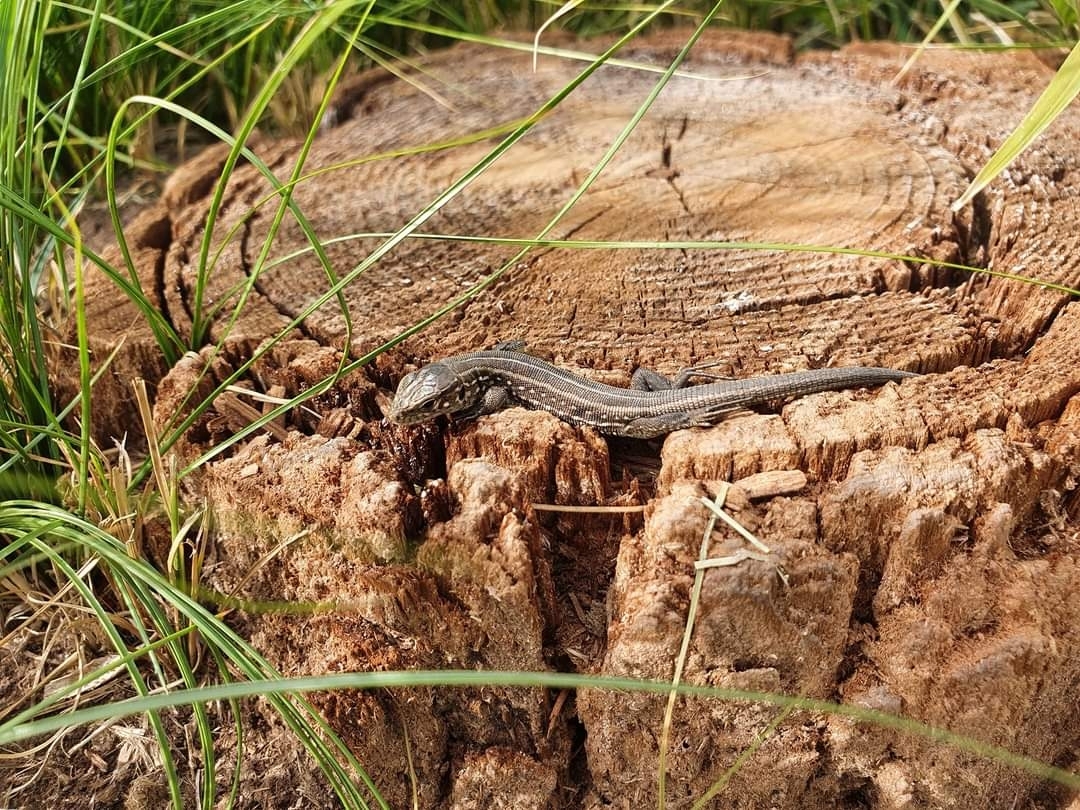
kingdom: Animalia
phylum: Chordata
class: Squamata
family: Lacertidae
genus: Lacerta
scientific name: Lacerta agilis
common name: Sand lizard
